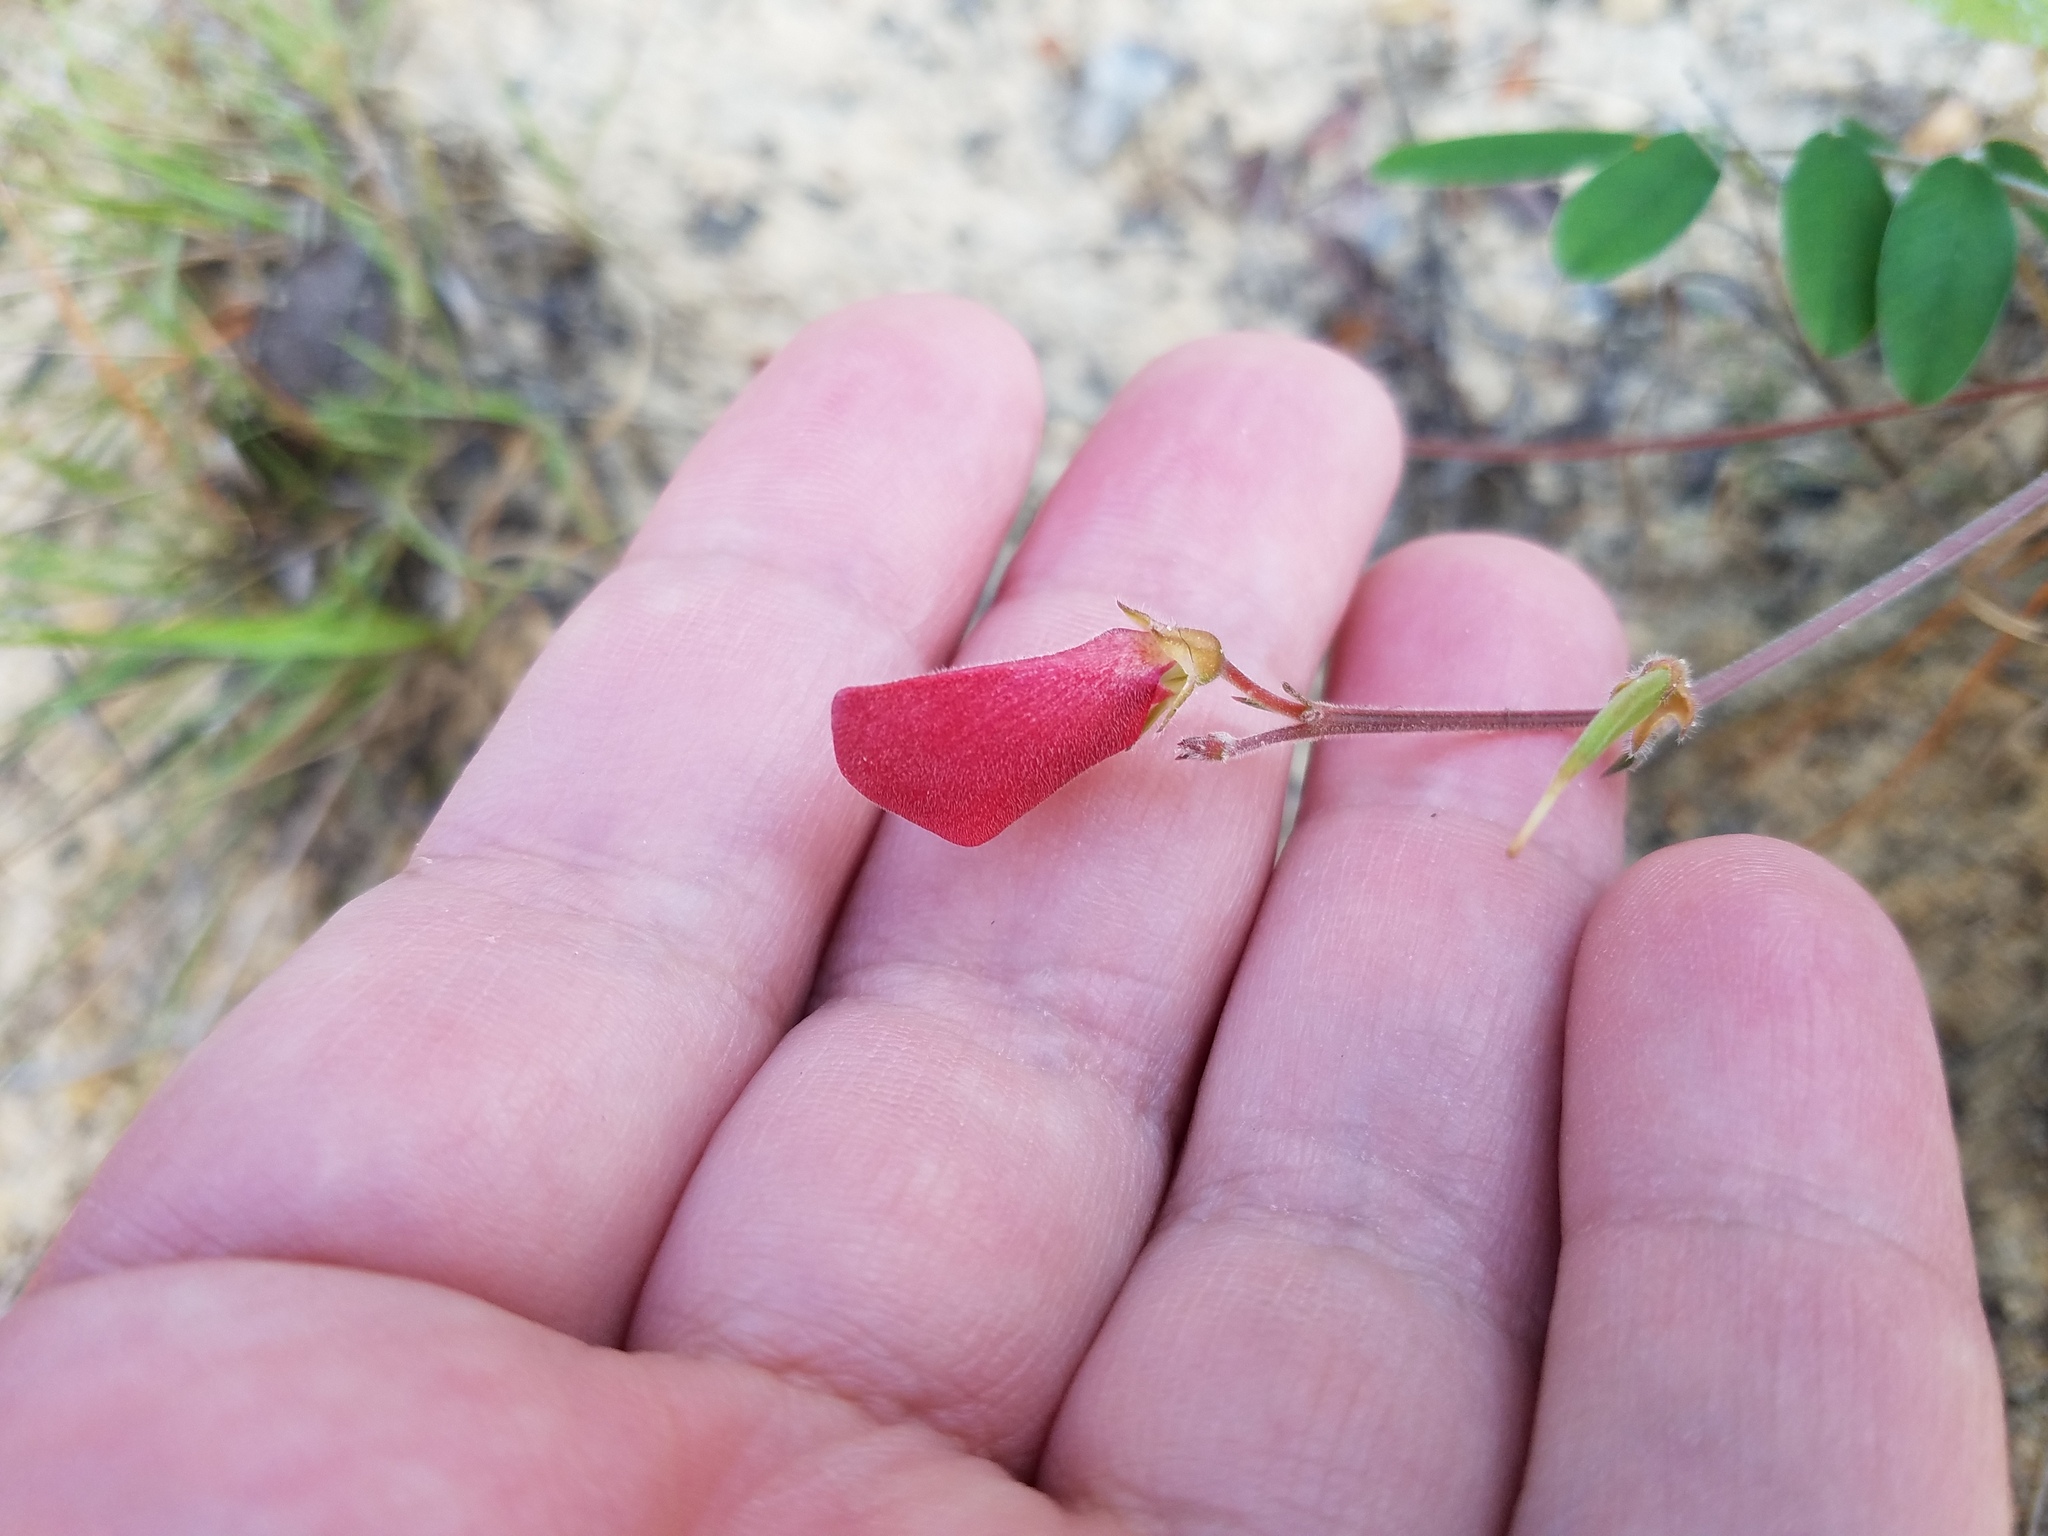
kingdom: Plantae
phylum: Tracheophyta
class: Magnoliopsida
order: Fabales
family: Fabaceae
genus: Tephrosia
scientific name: Tephrosia chrysophylla
